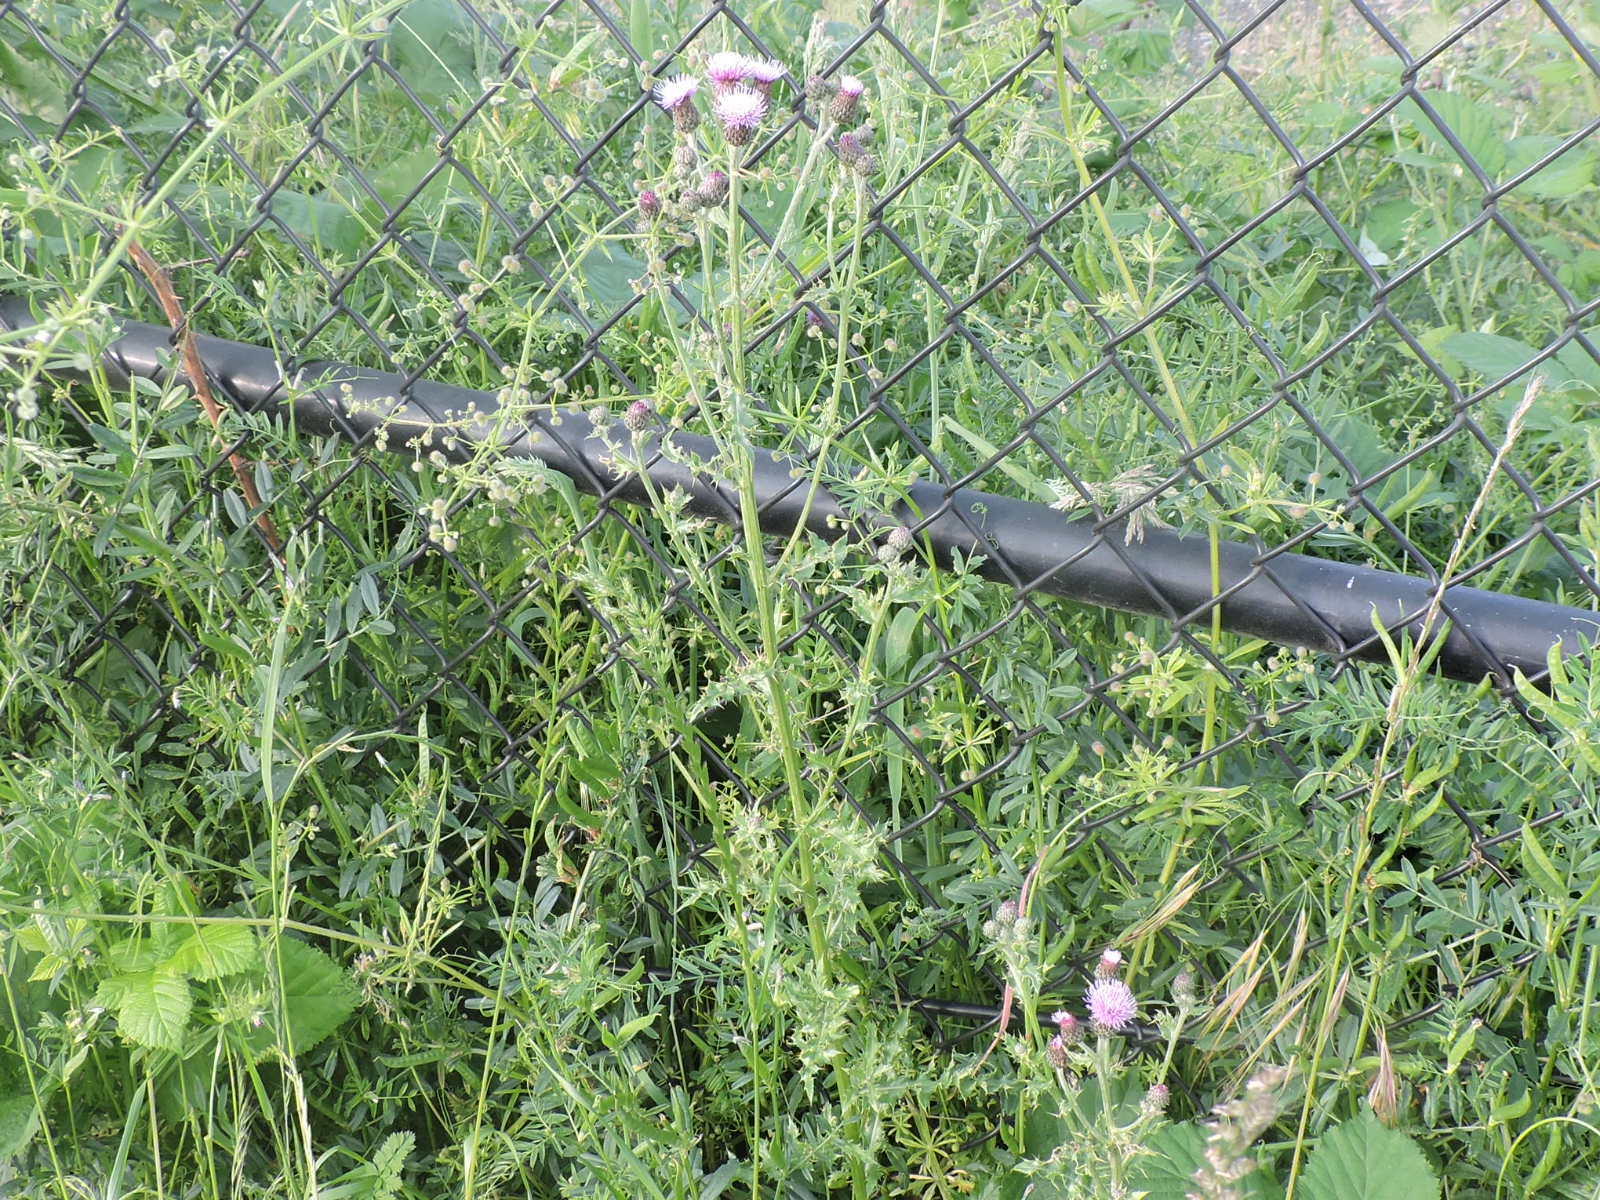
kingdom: Plantae
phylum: Tracheophyta
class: Magnoliopsida
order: Asterales
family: Asteraceae
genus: Cirsium
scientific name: Cirsium arvense
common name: Creeping thistle
